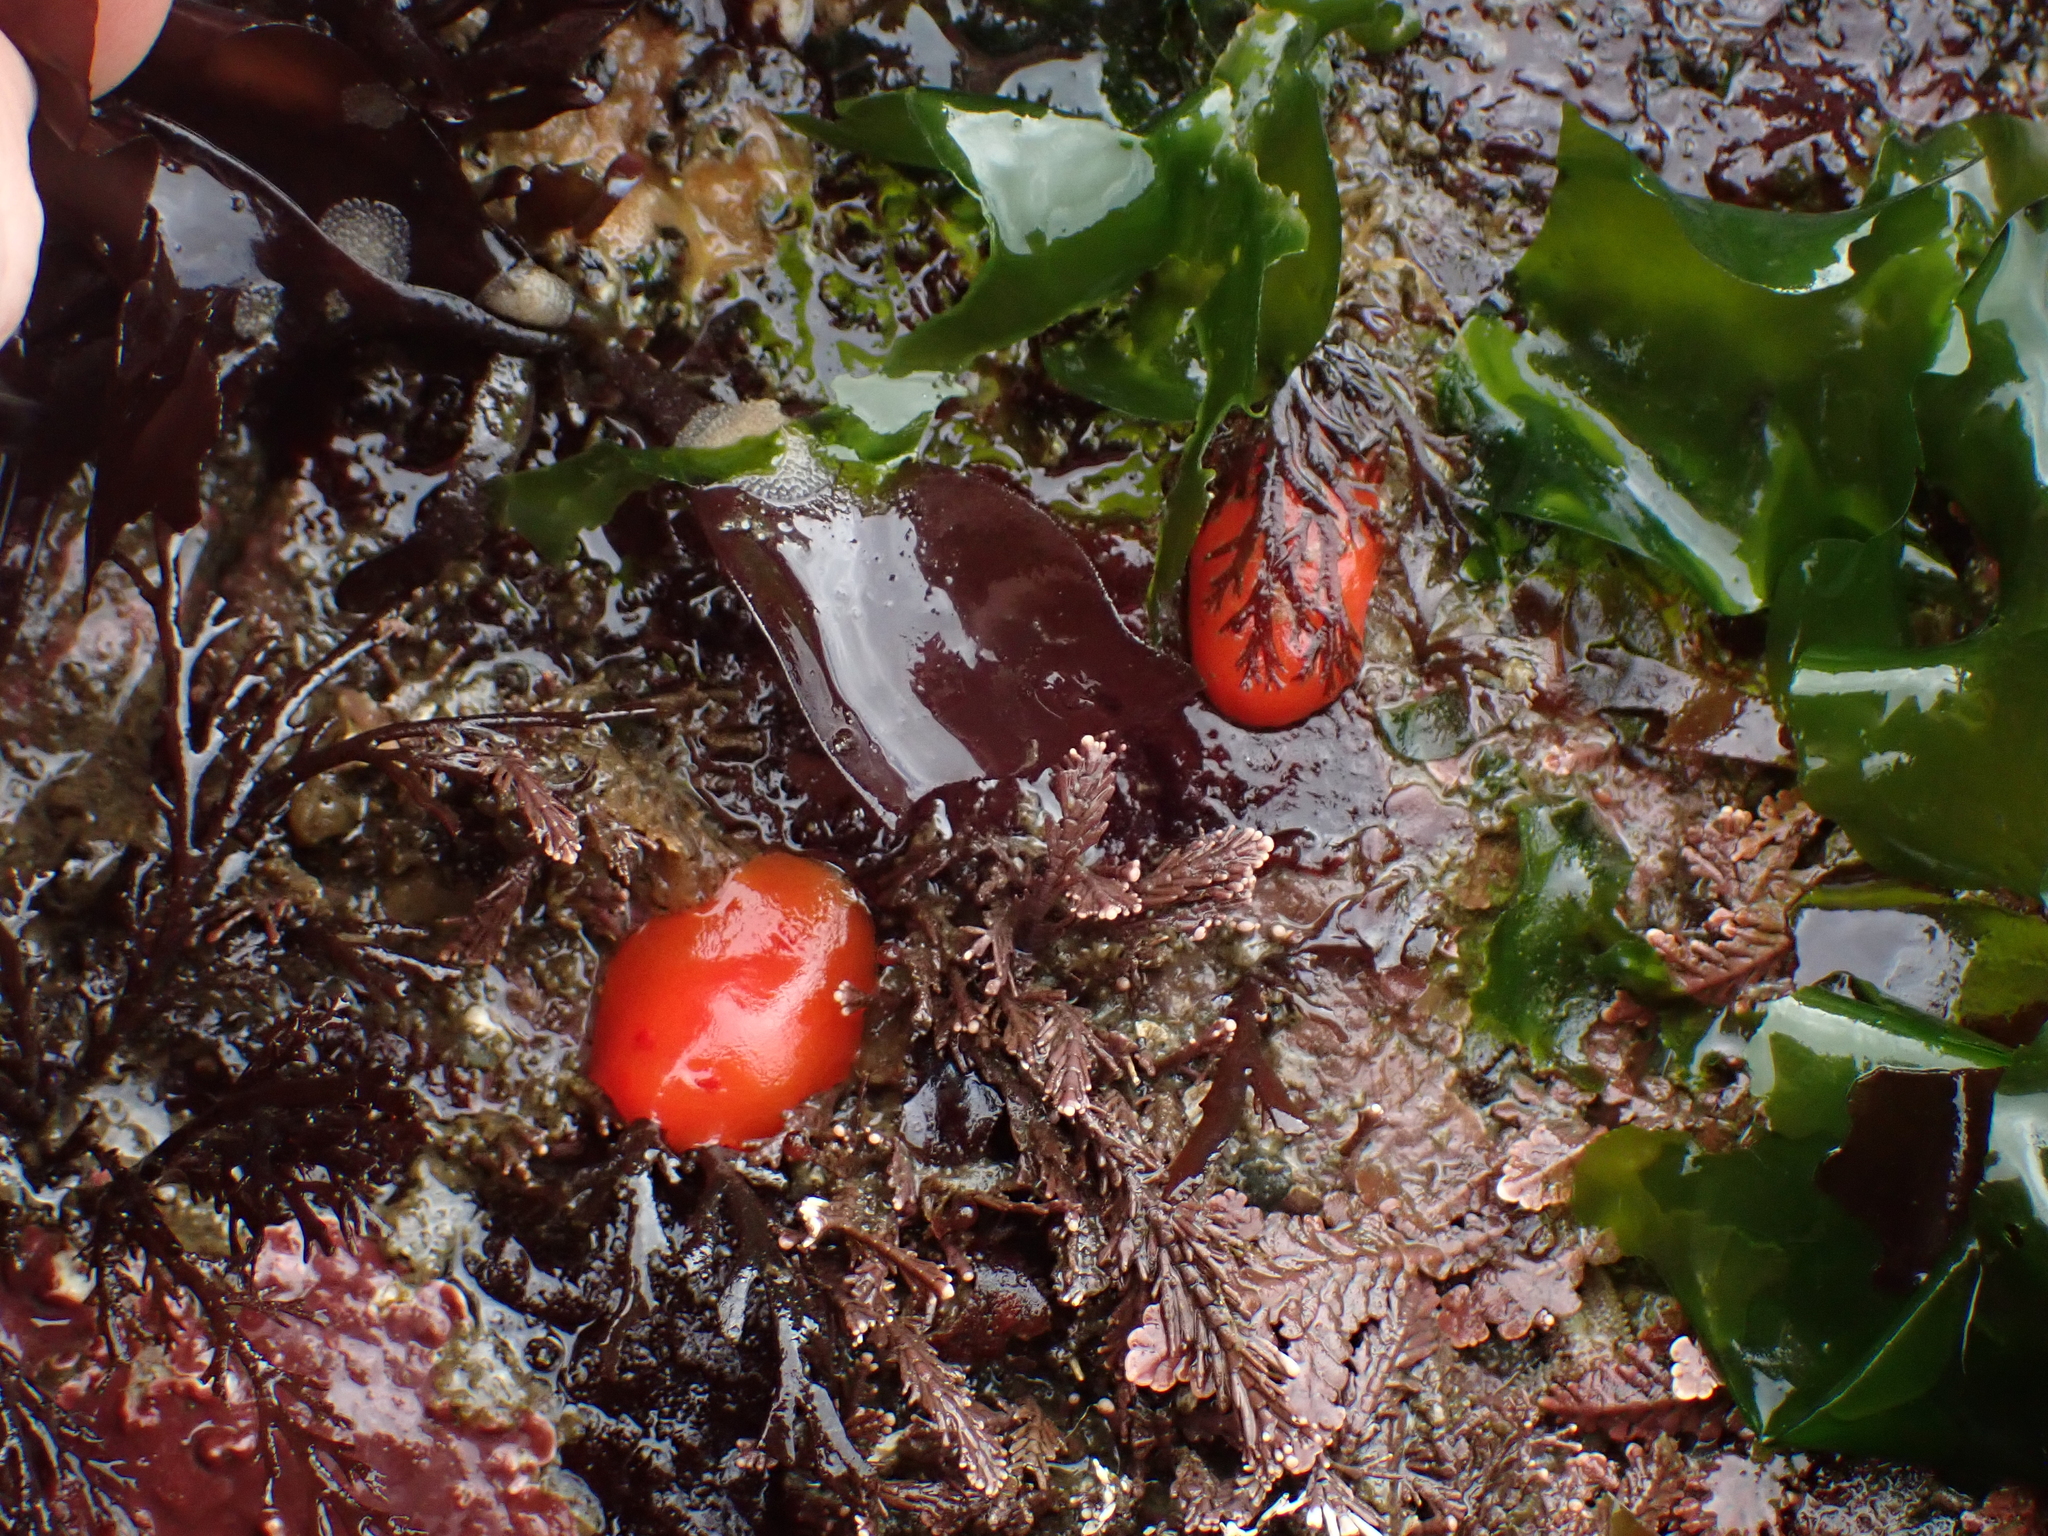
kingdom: Animalia
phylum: Mollusca
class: Gastropoda
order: Nudibranchia
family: Discodorididae
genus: Rostanga
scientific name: Rostanga pulchra
